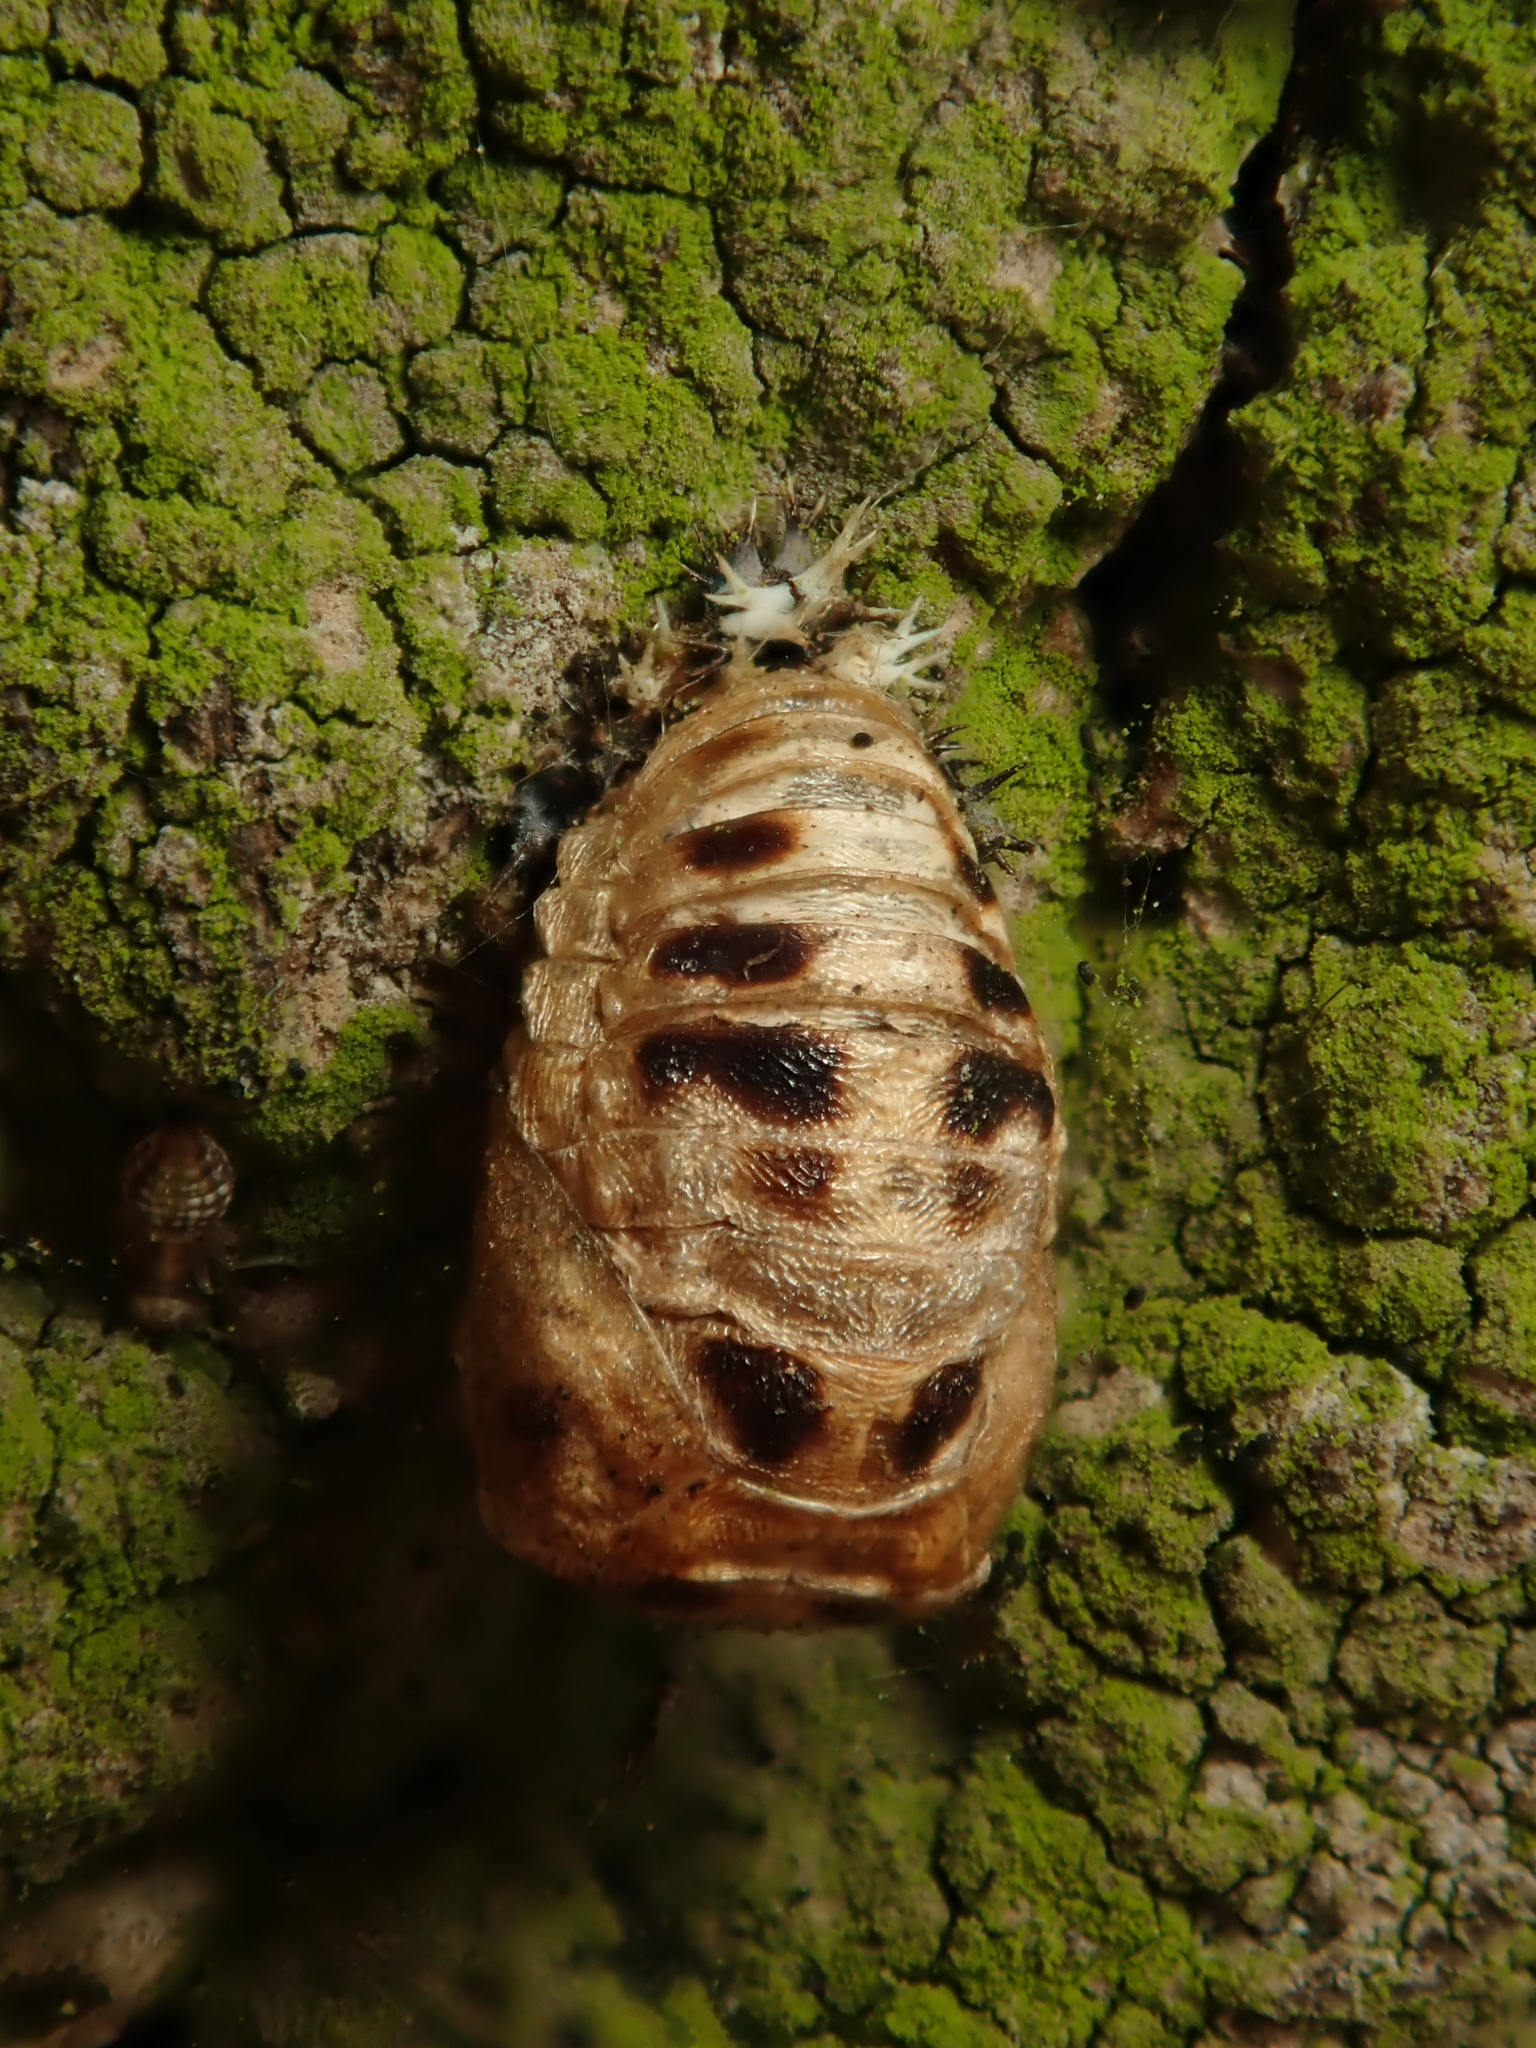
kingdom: Animalia
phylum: Arthropoda
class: Insecta
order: Coleoptera
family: Coccinellidae
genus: Harmonia
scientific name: Harmonia axyridis
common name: Harlequin ladybird
